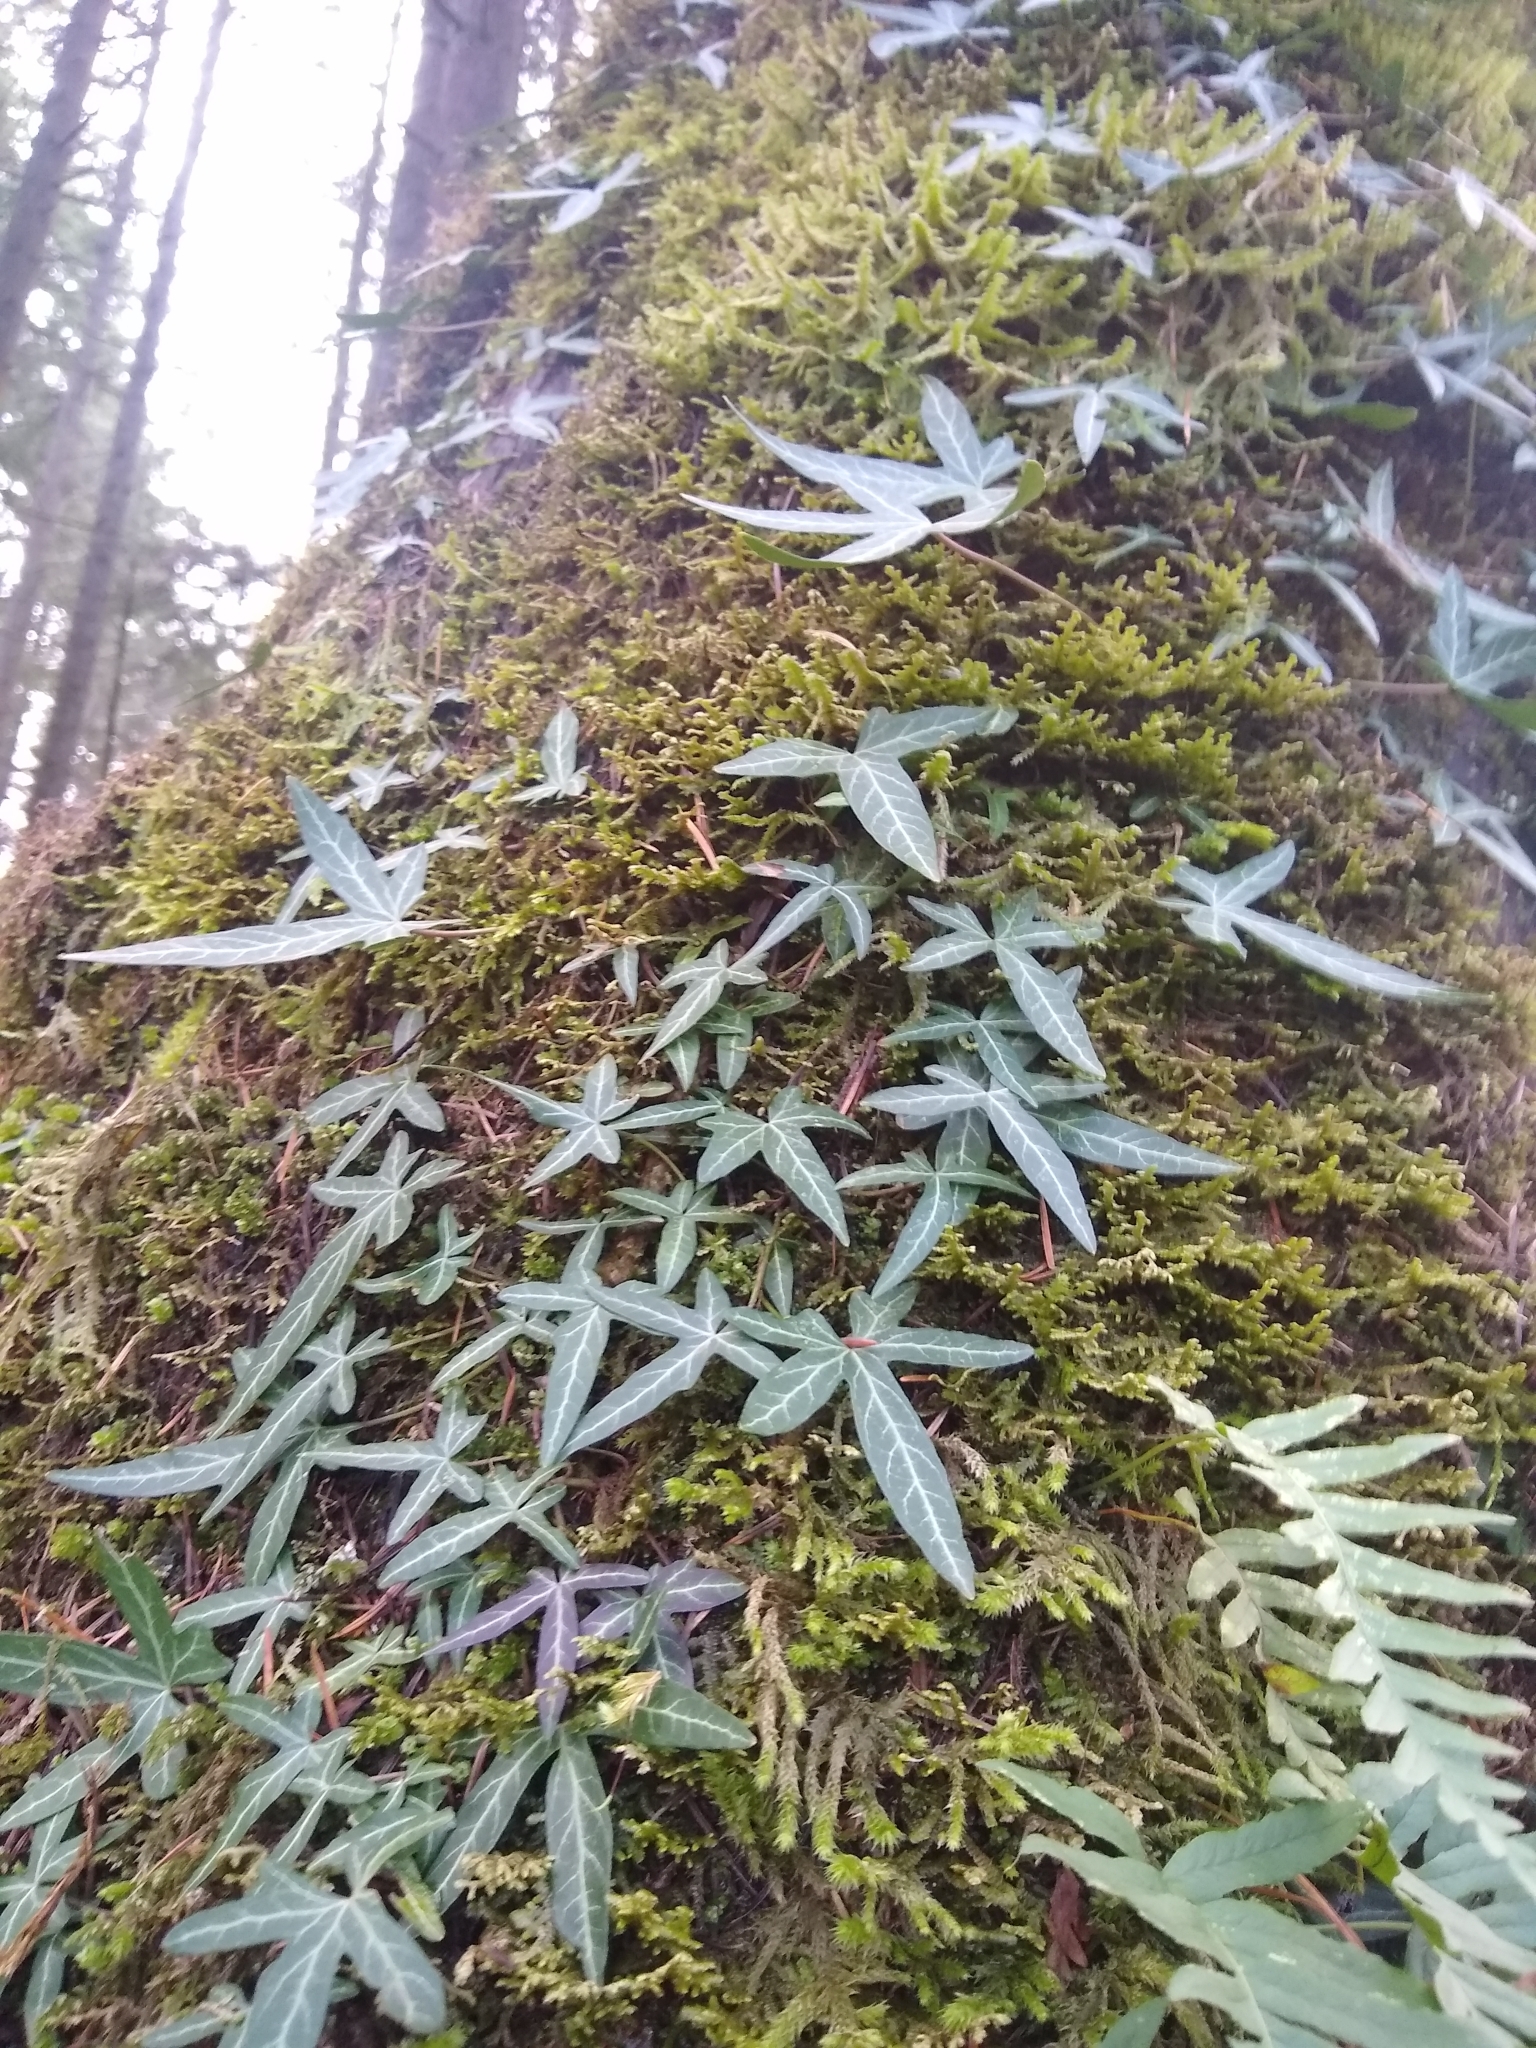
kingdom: Plantae
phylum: Tracheophyta
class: Magnoliopsida
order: Apiales
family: Araliaceae
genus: Hedera
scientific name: Hedera helix
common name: Ivy
